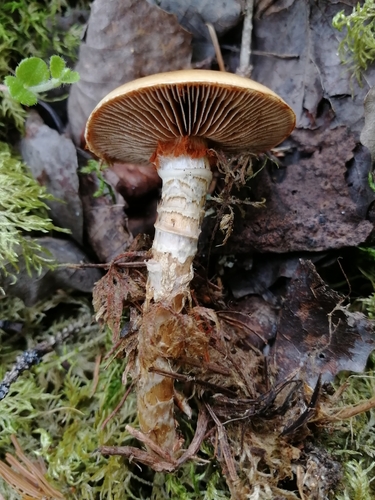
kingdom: Fungi
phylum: Basidiomycota
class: Agaricomycetes
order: Agaricales
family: Cortinariaceae
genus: Cortinarius
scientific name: Cortinarius trivialis
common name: Girdled webcap
